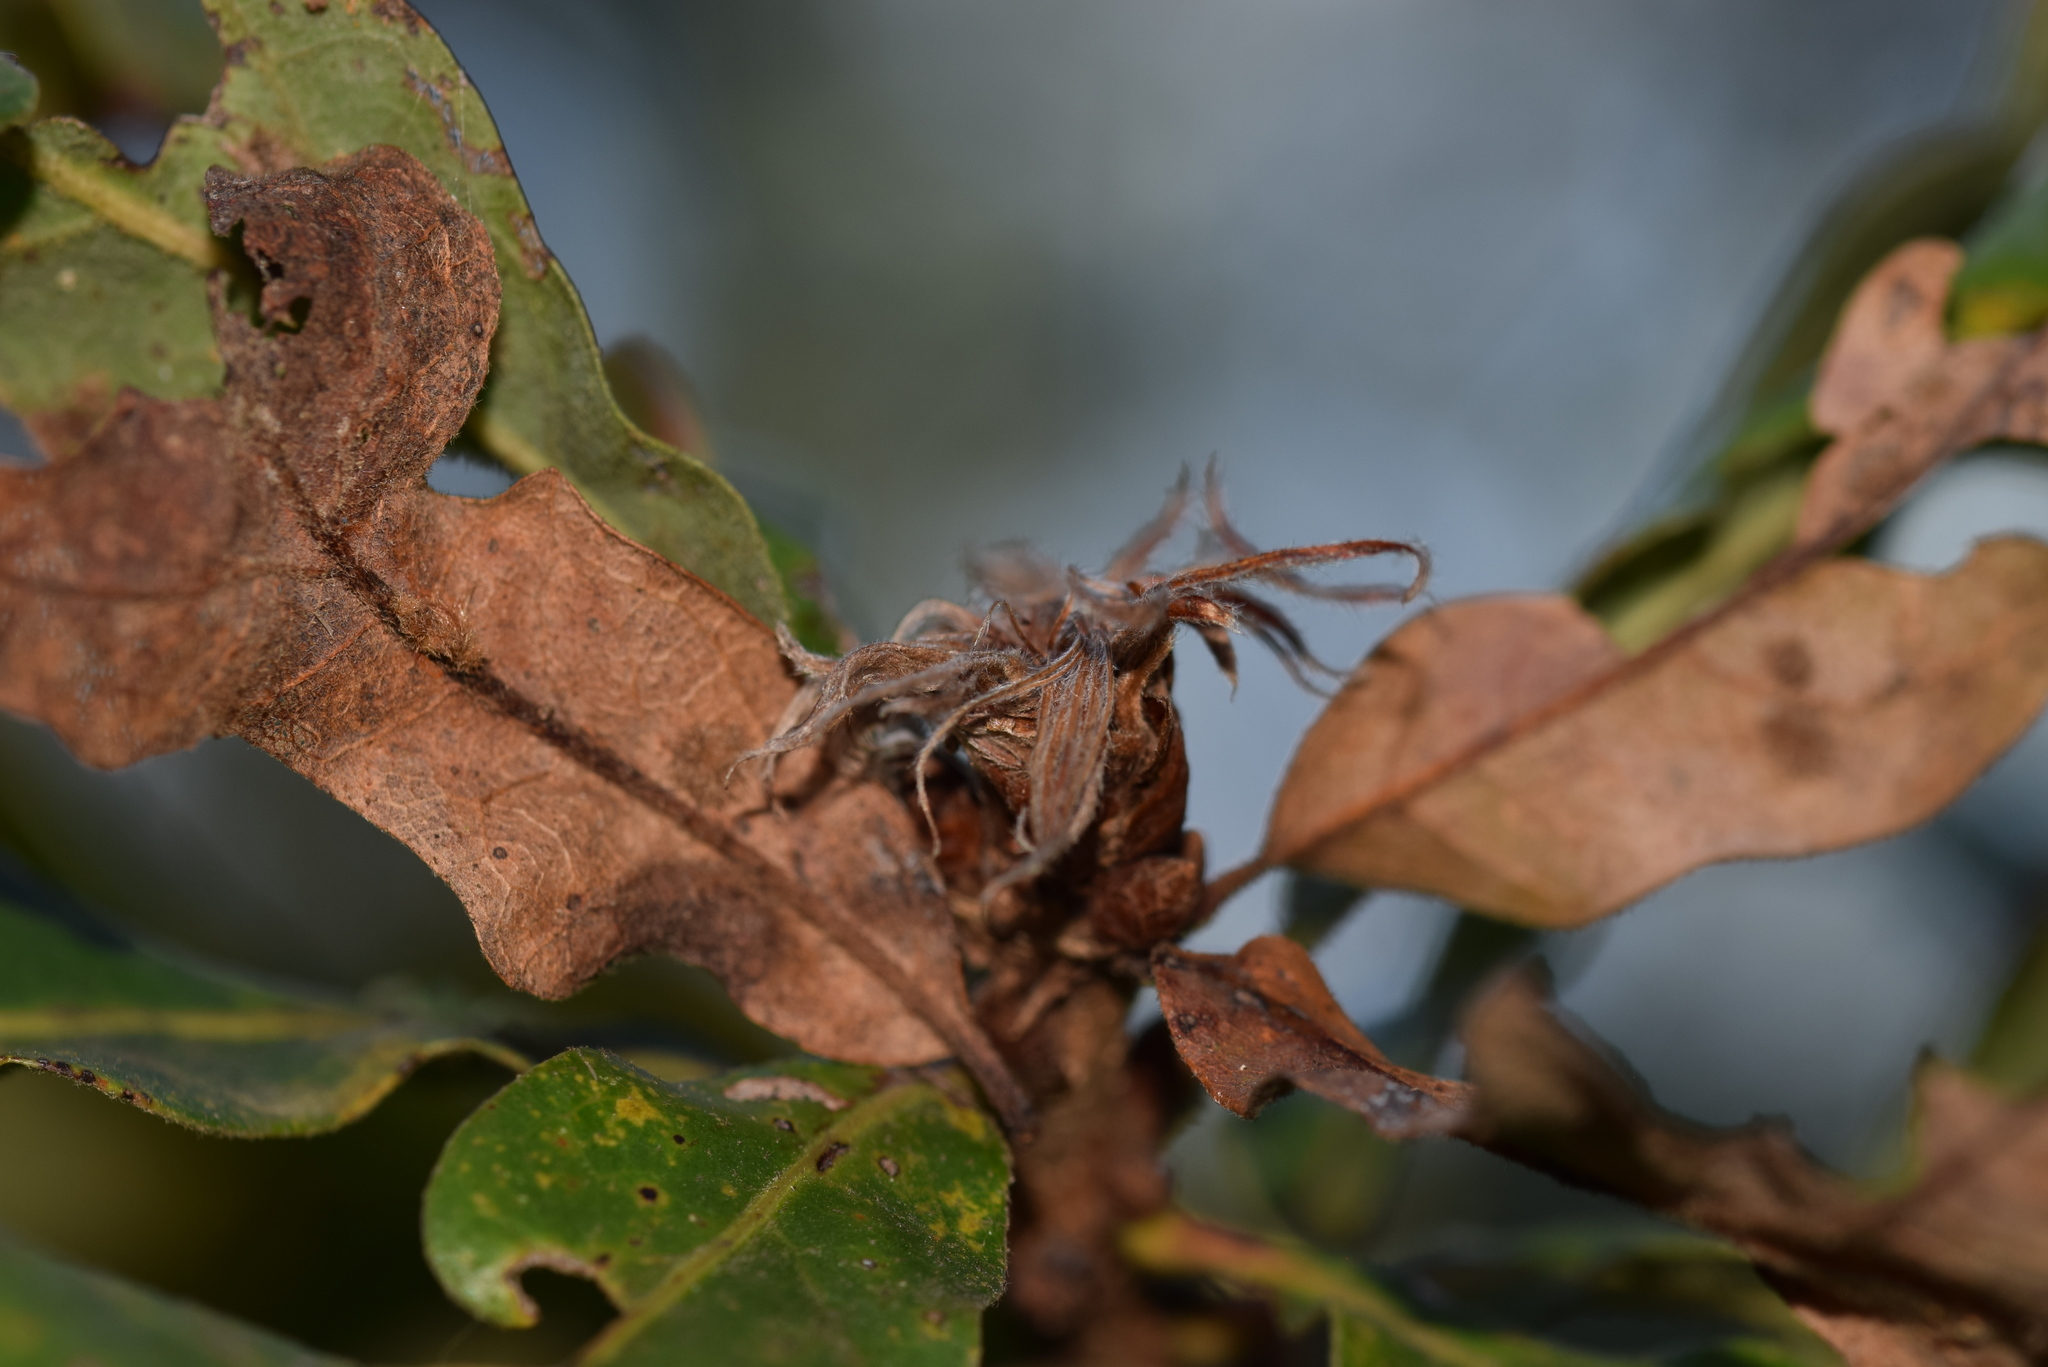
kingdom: Animalia
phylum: Arthropoda
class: Insecta
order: Hymenoptera
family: Cynipidae
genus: Andricus
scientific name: Andricus
